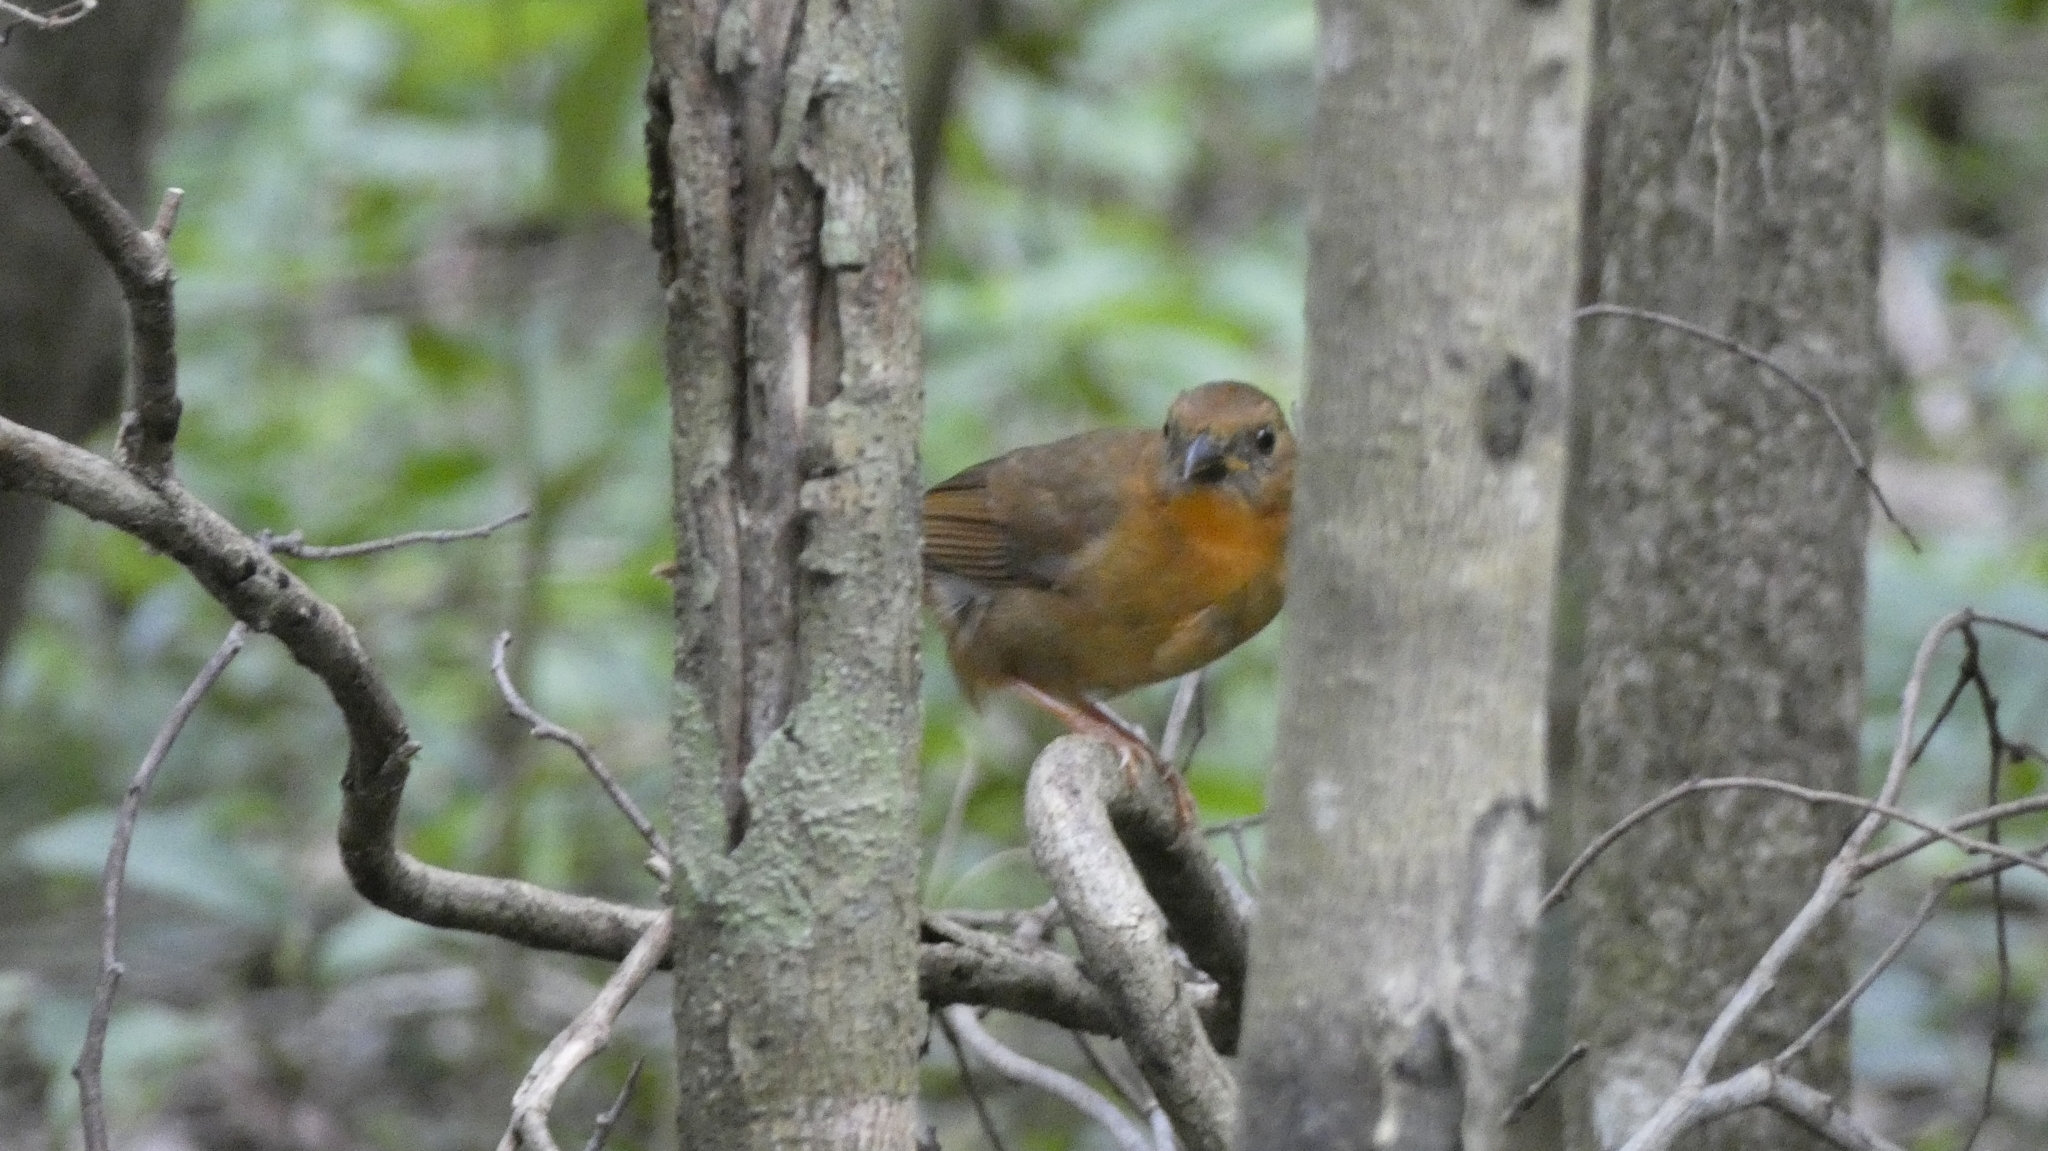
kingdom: Animalia
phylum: Chordata
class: Aves
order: Passeriformes
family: Cardinalidae
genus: Habia
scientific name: Habia fuscicauda
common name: Red-throated ant-tanager
